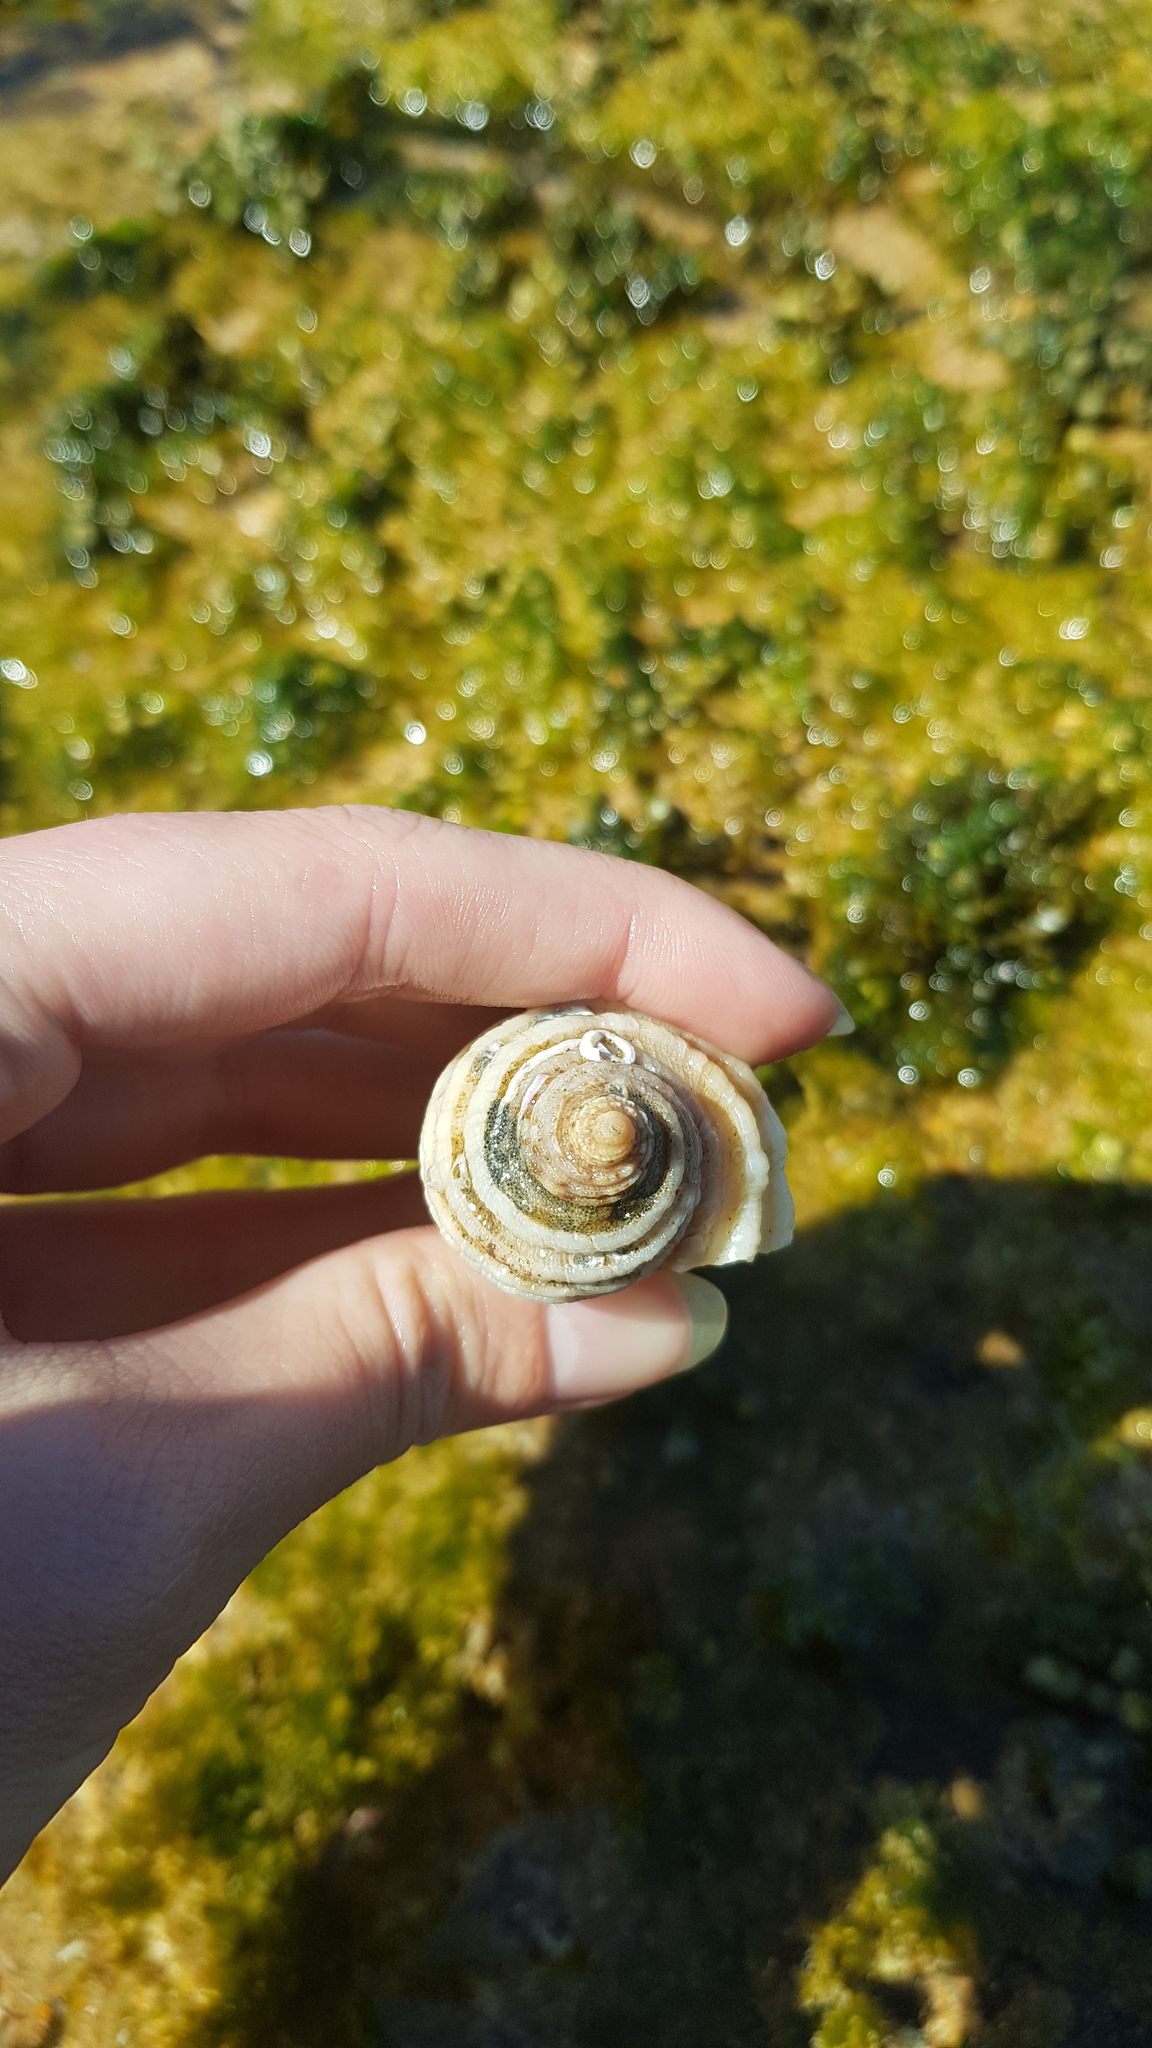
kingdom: Animalia
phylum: Mollusca
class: Gastropoda
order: Neogastropoda
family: Muricidae
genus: Dicathais
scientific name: Dicathais orbita
